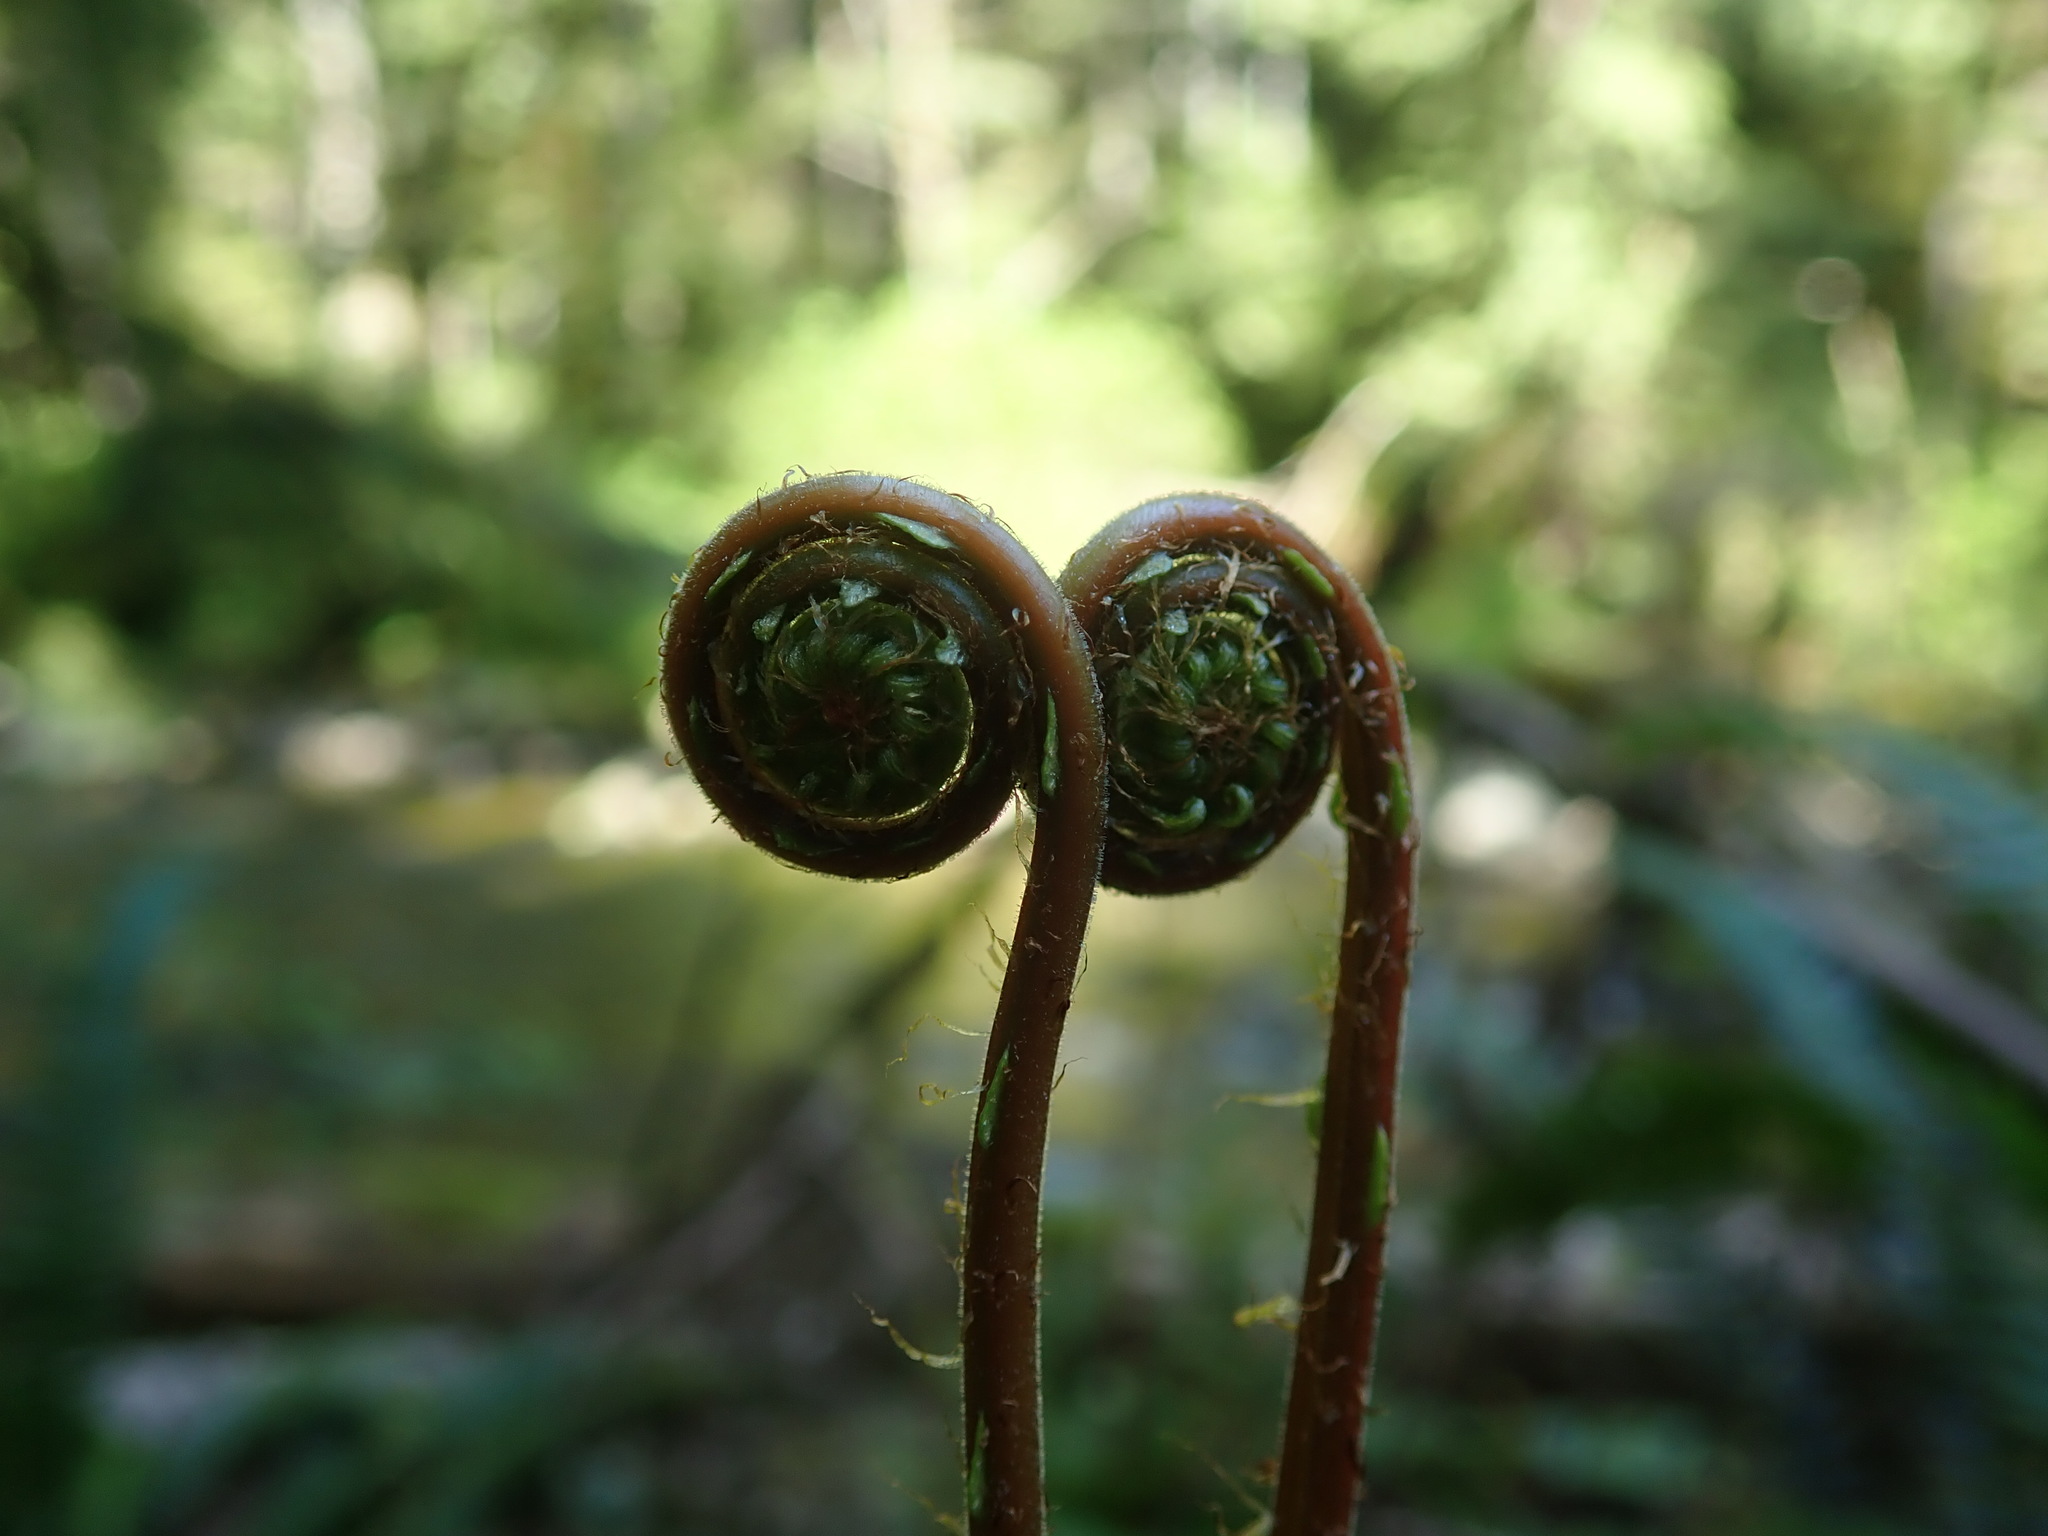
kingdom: Plantae
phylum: Tracheophyta
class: Polypodiopsida
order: Polypodiales
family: Blechnaceae
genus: Struthiopteris
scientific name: Struthiopteris spicant
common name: Deer fern
